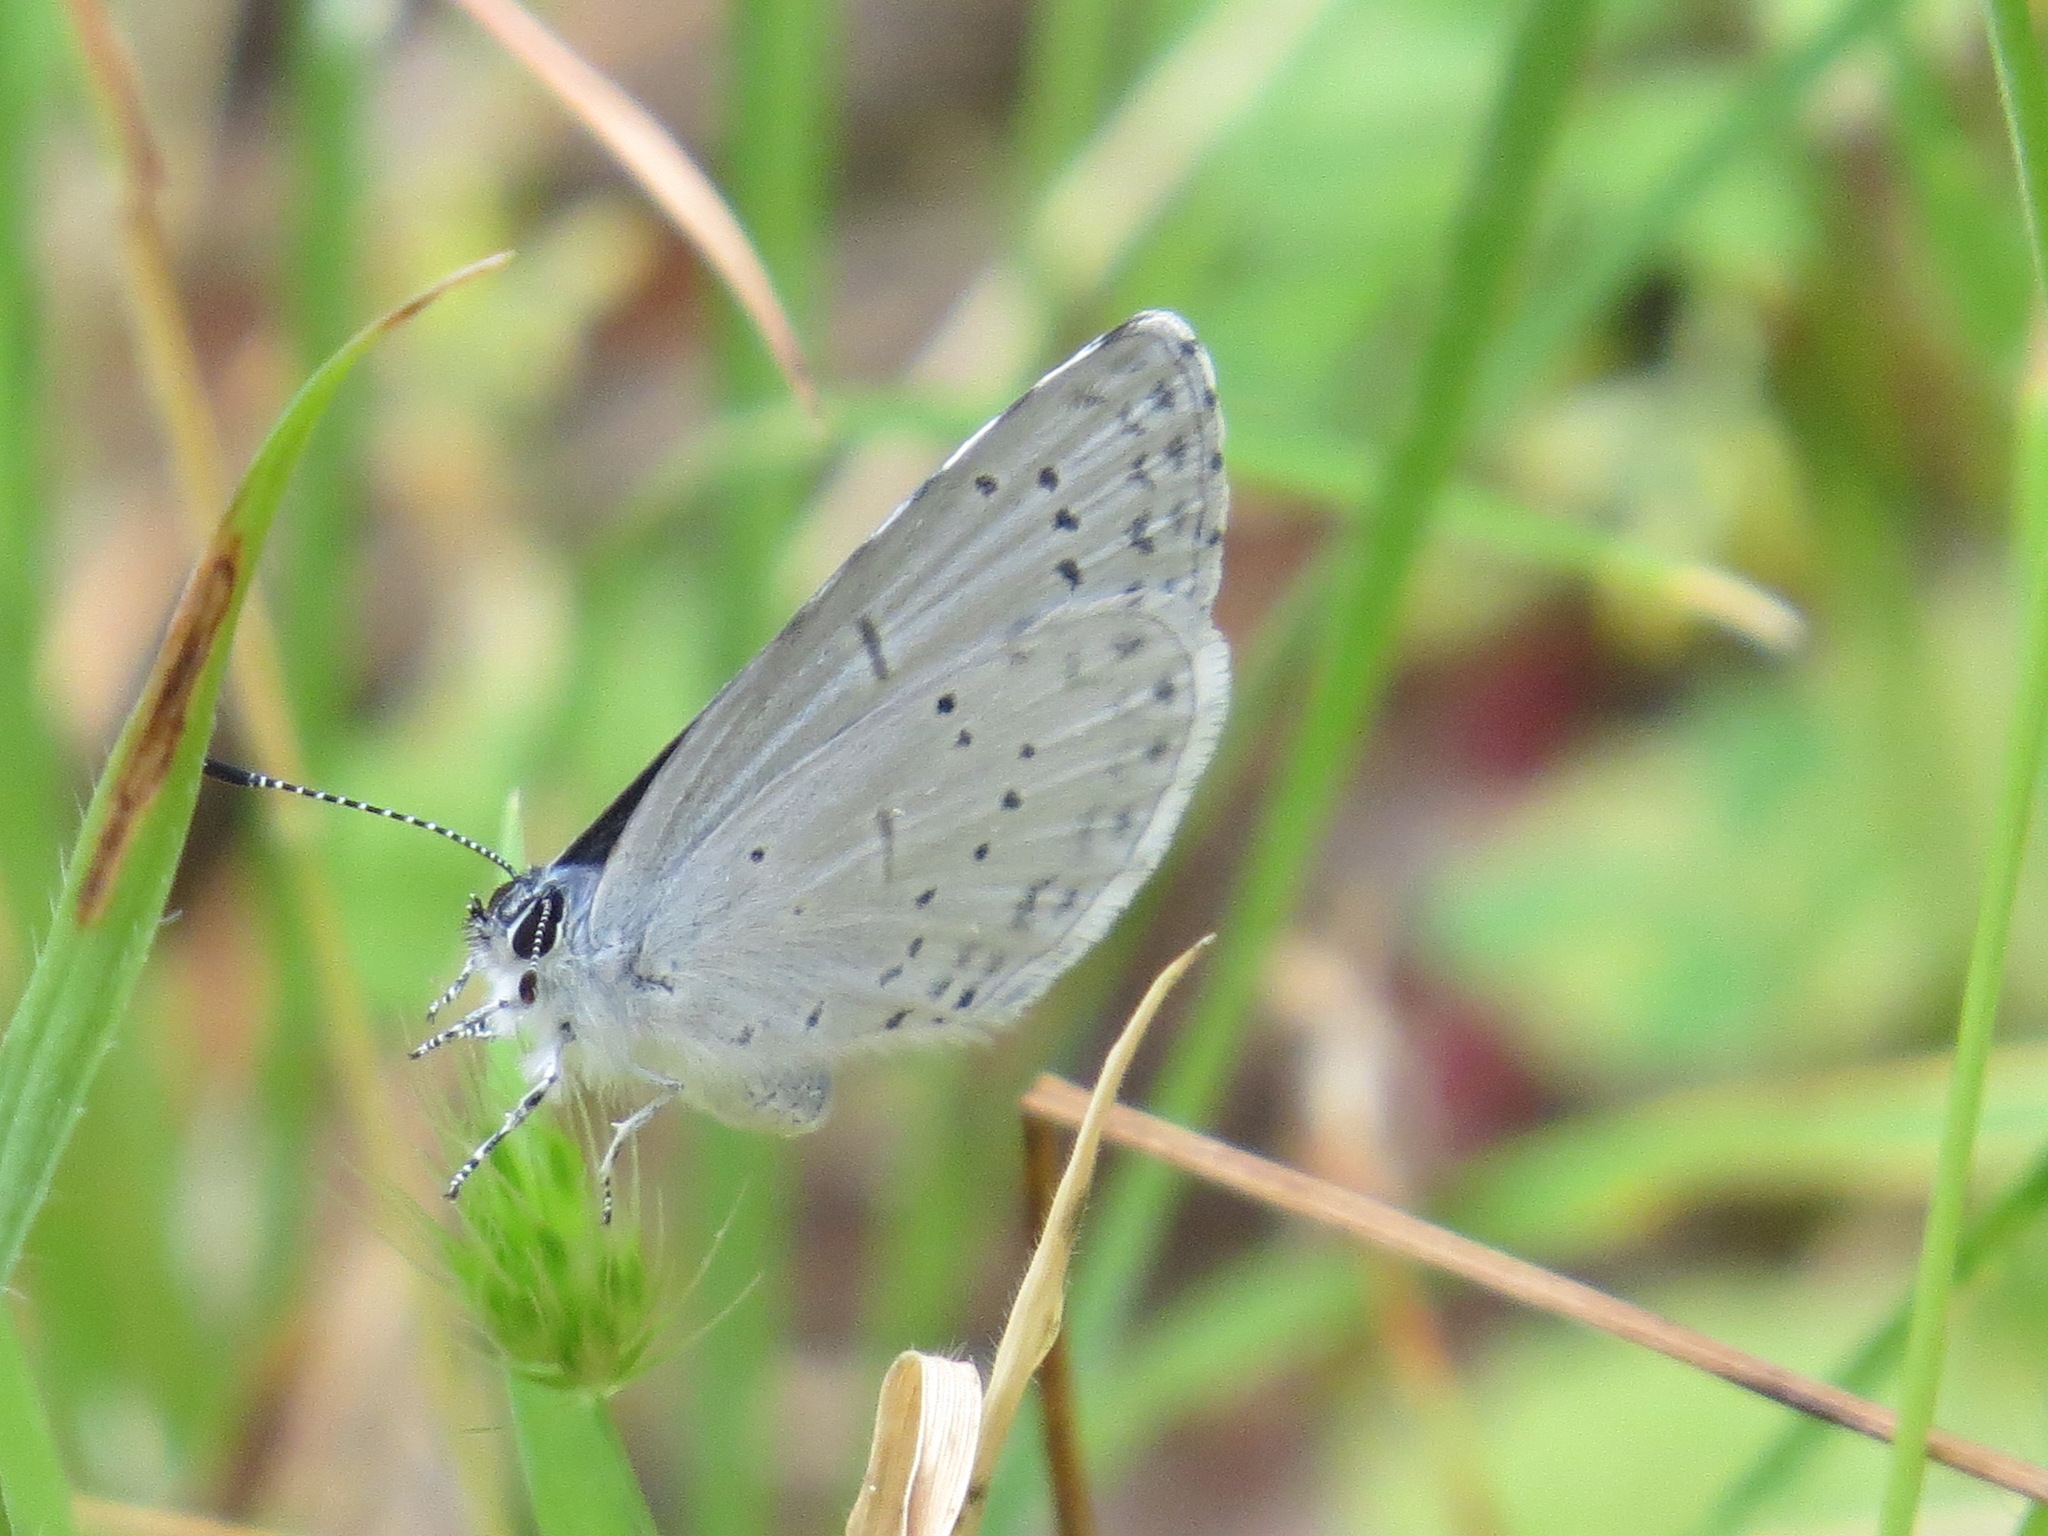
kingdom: Animalia
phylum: Arthropoda
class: Insecta
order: Lepidoptera
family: Lycaenidae
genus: Celastrina
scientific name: Celastrina ladon
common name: Spring azure
